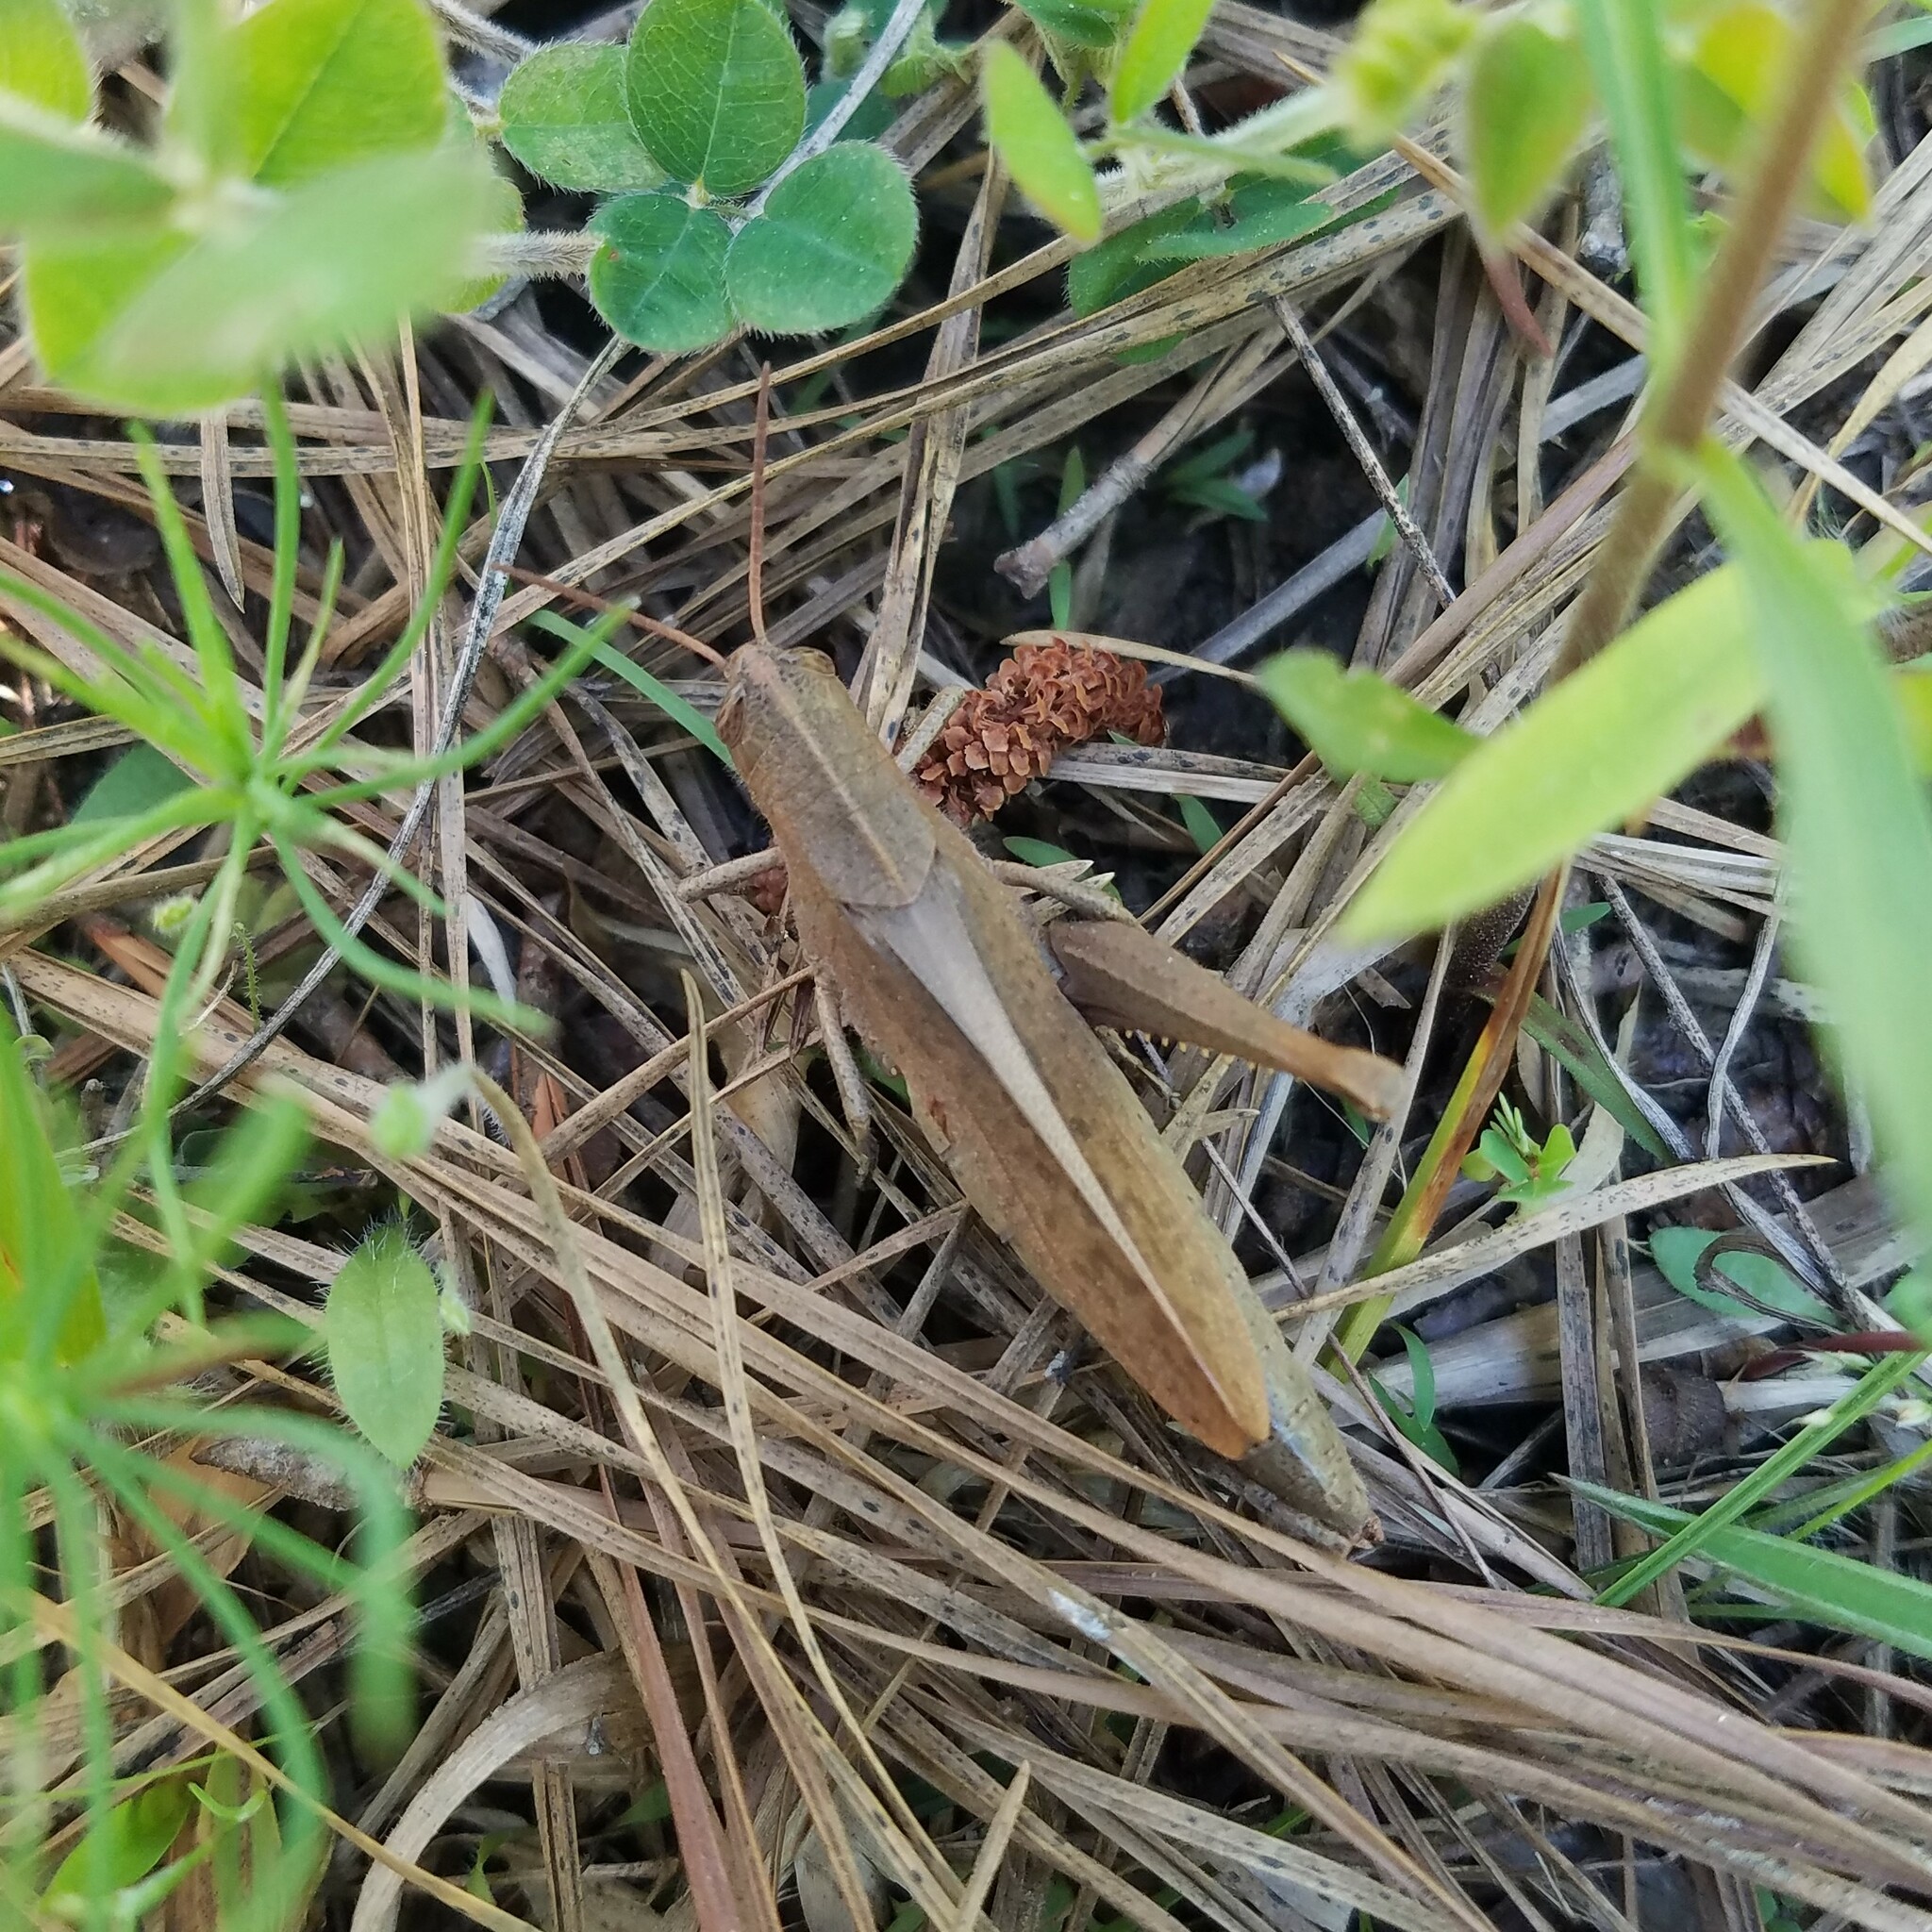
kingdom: Animalia
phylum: Arthropoda
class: Insecta
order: Orthoptera
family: Acrididae
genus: Schistocerca
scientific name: Schistocerca damnifica
